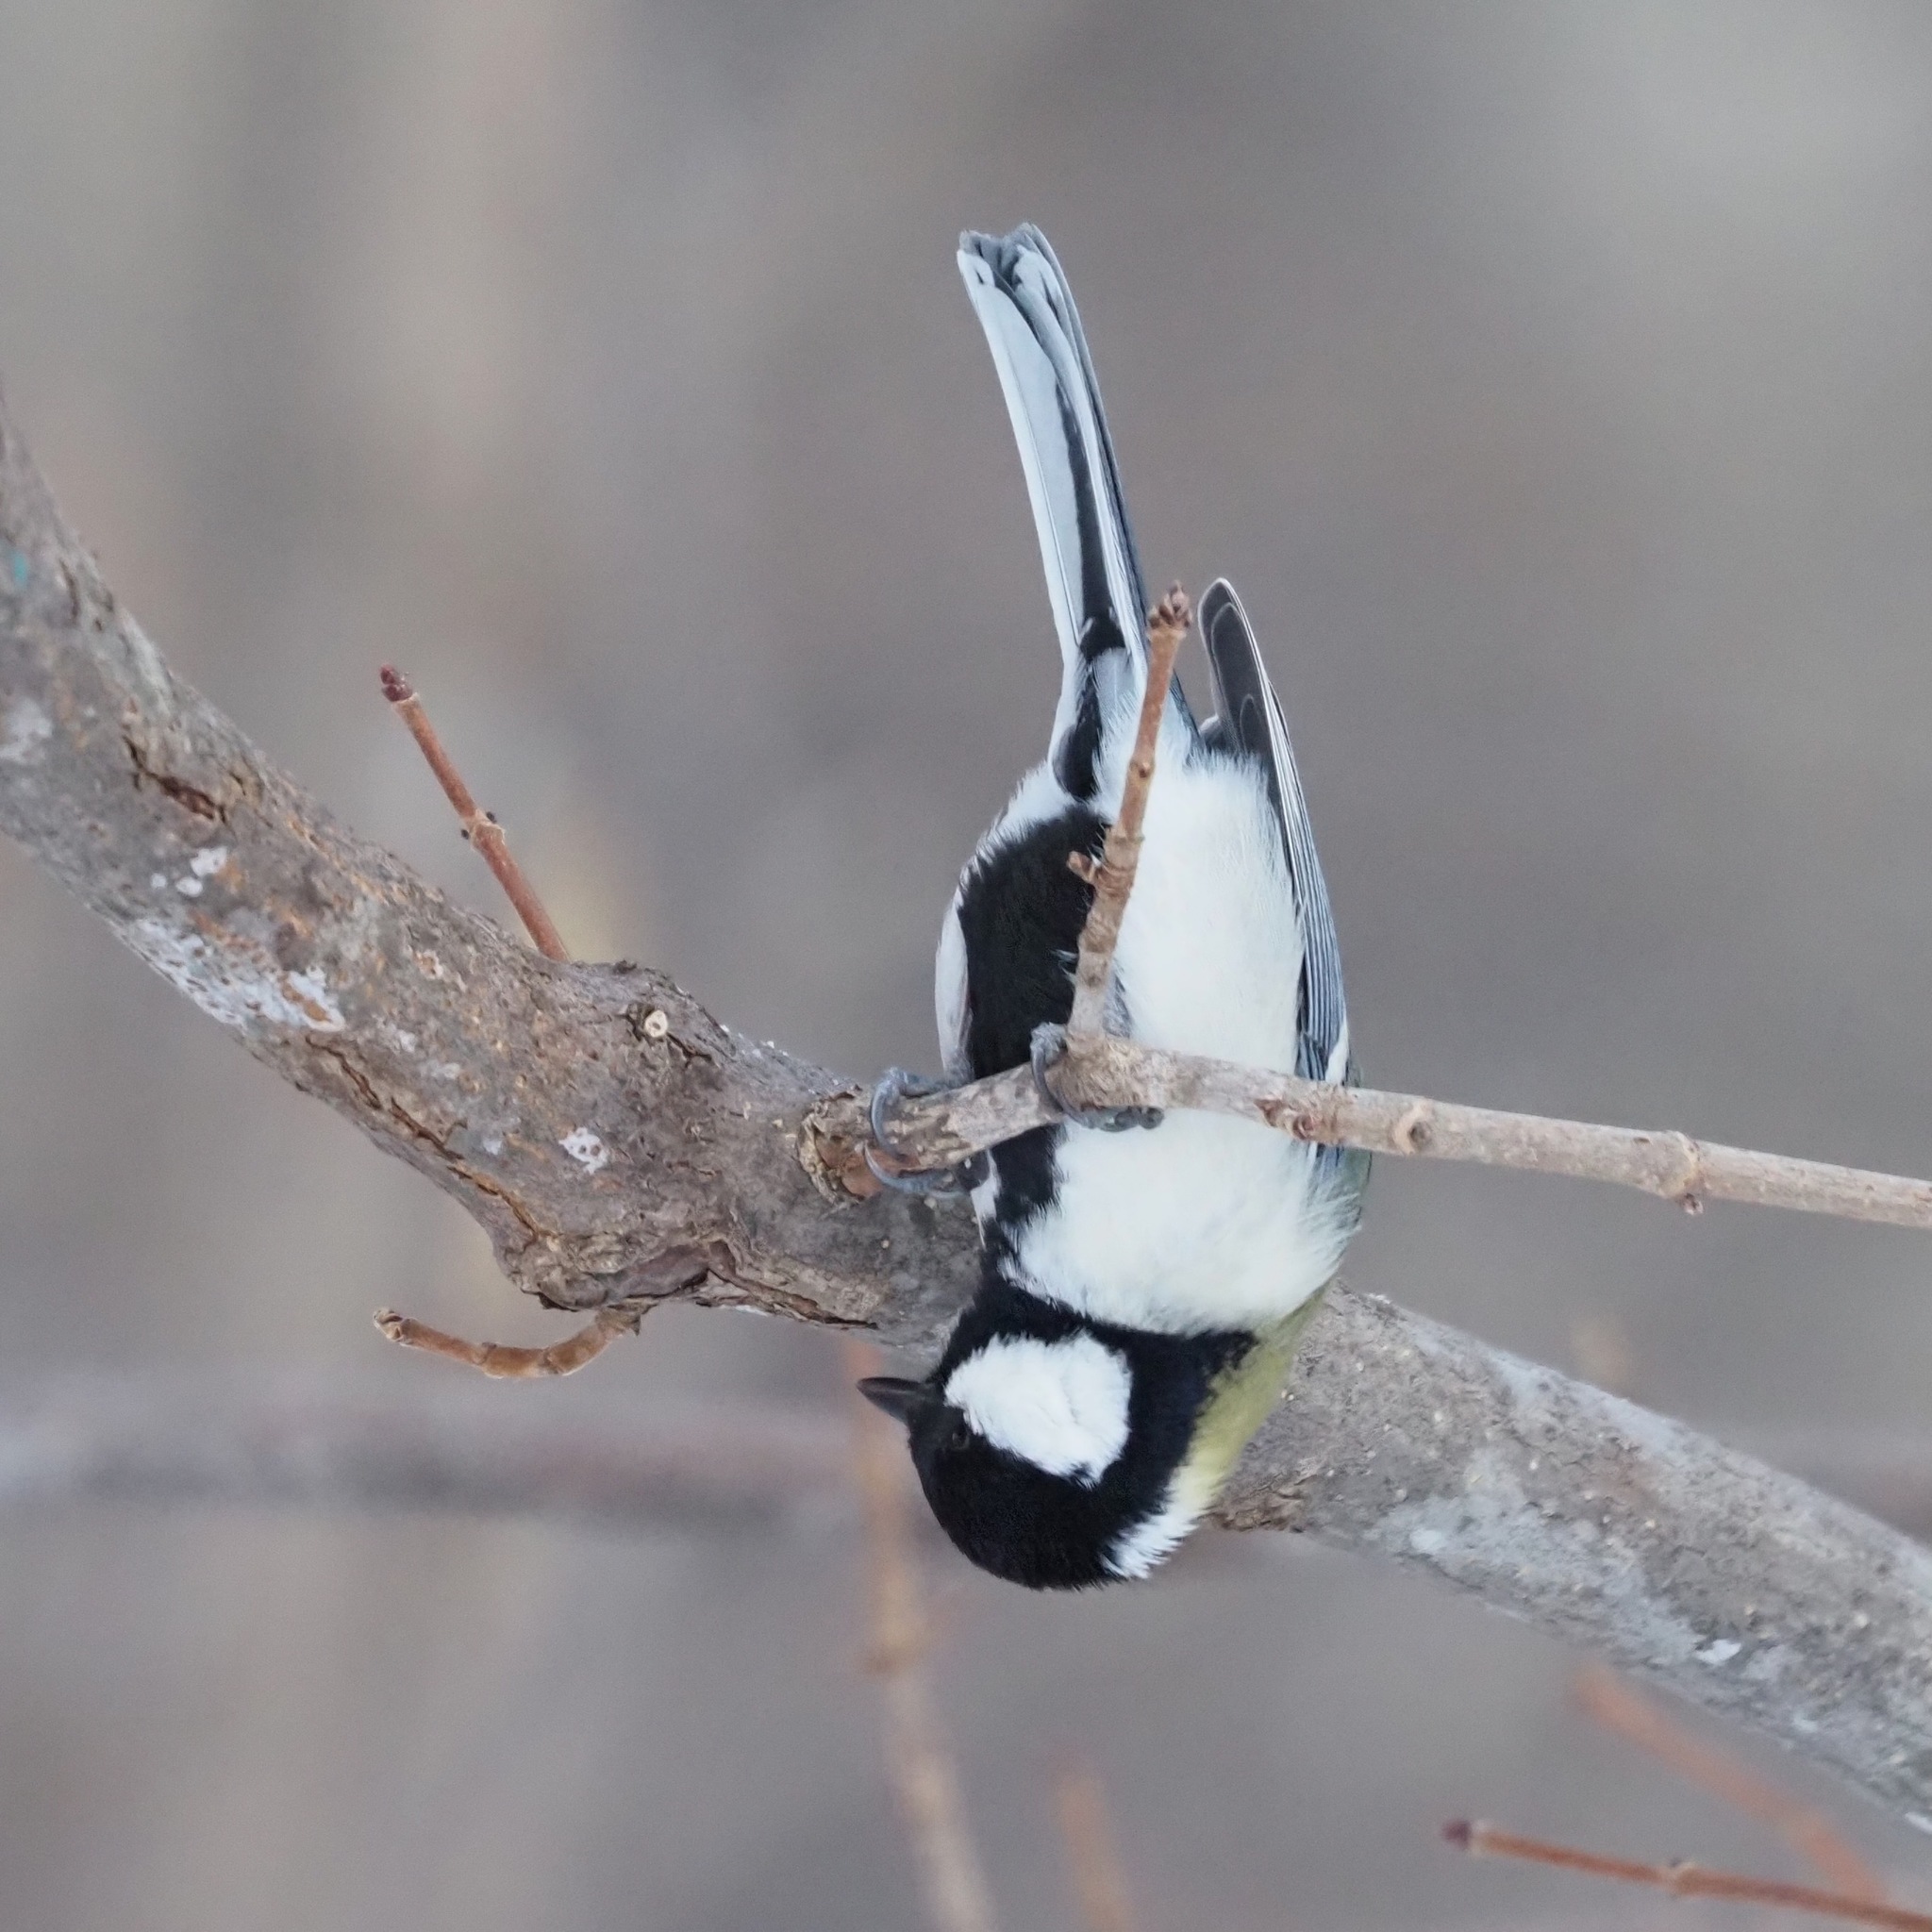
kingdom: Animalia
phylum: Chordata
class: Aves
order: Passeriformes
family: Paridae
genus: Parus
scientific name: Parus minor
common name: Japanese tit
